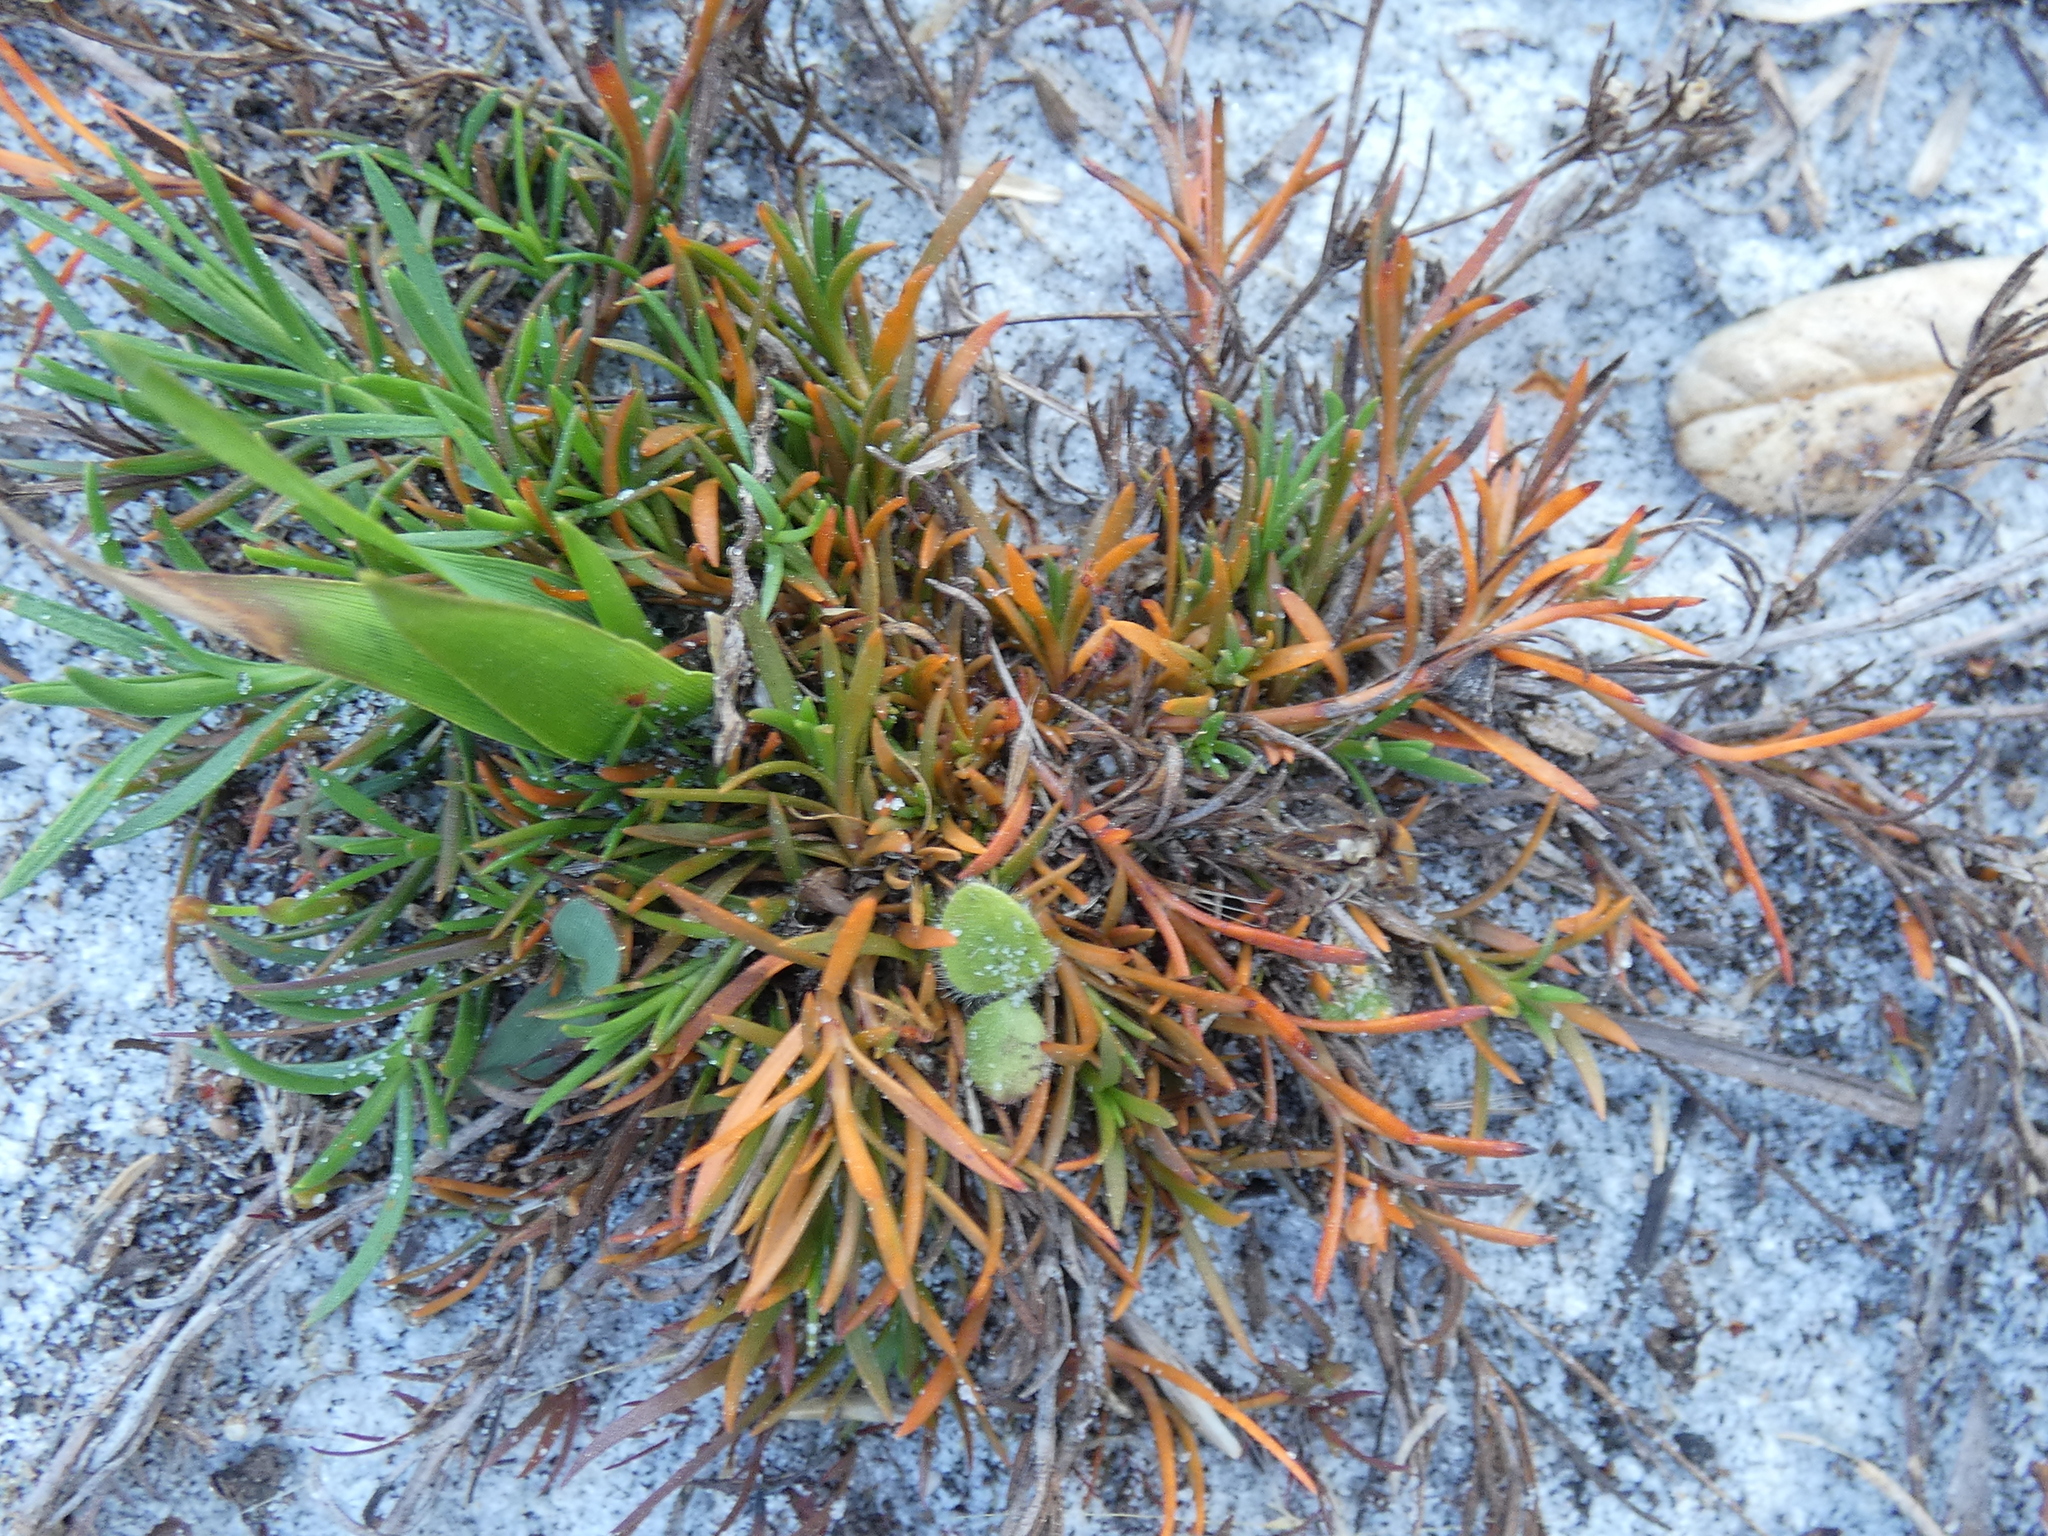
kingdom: Plantae
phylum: Tracheophyta
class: Magnoliopsida
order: Lamiales
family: Tetrachondraceae
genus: Polypremum
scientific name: Polypremum procumbens
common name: Juniper-leaf
